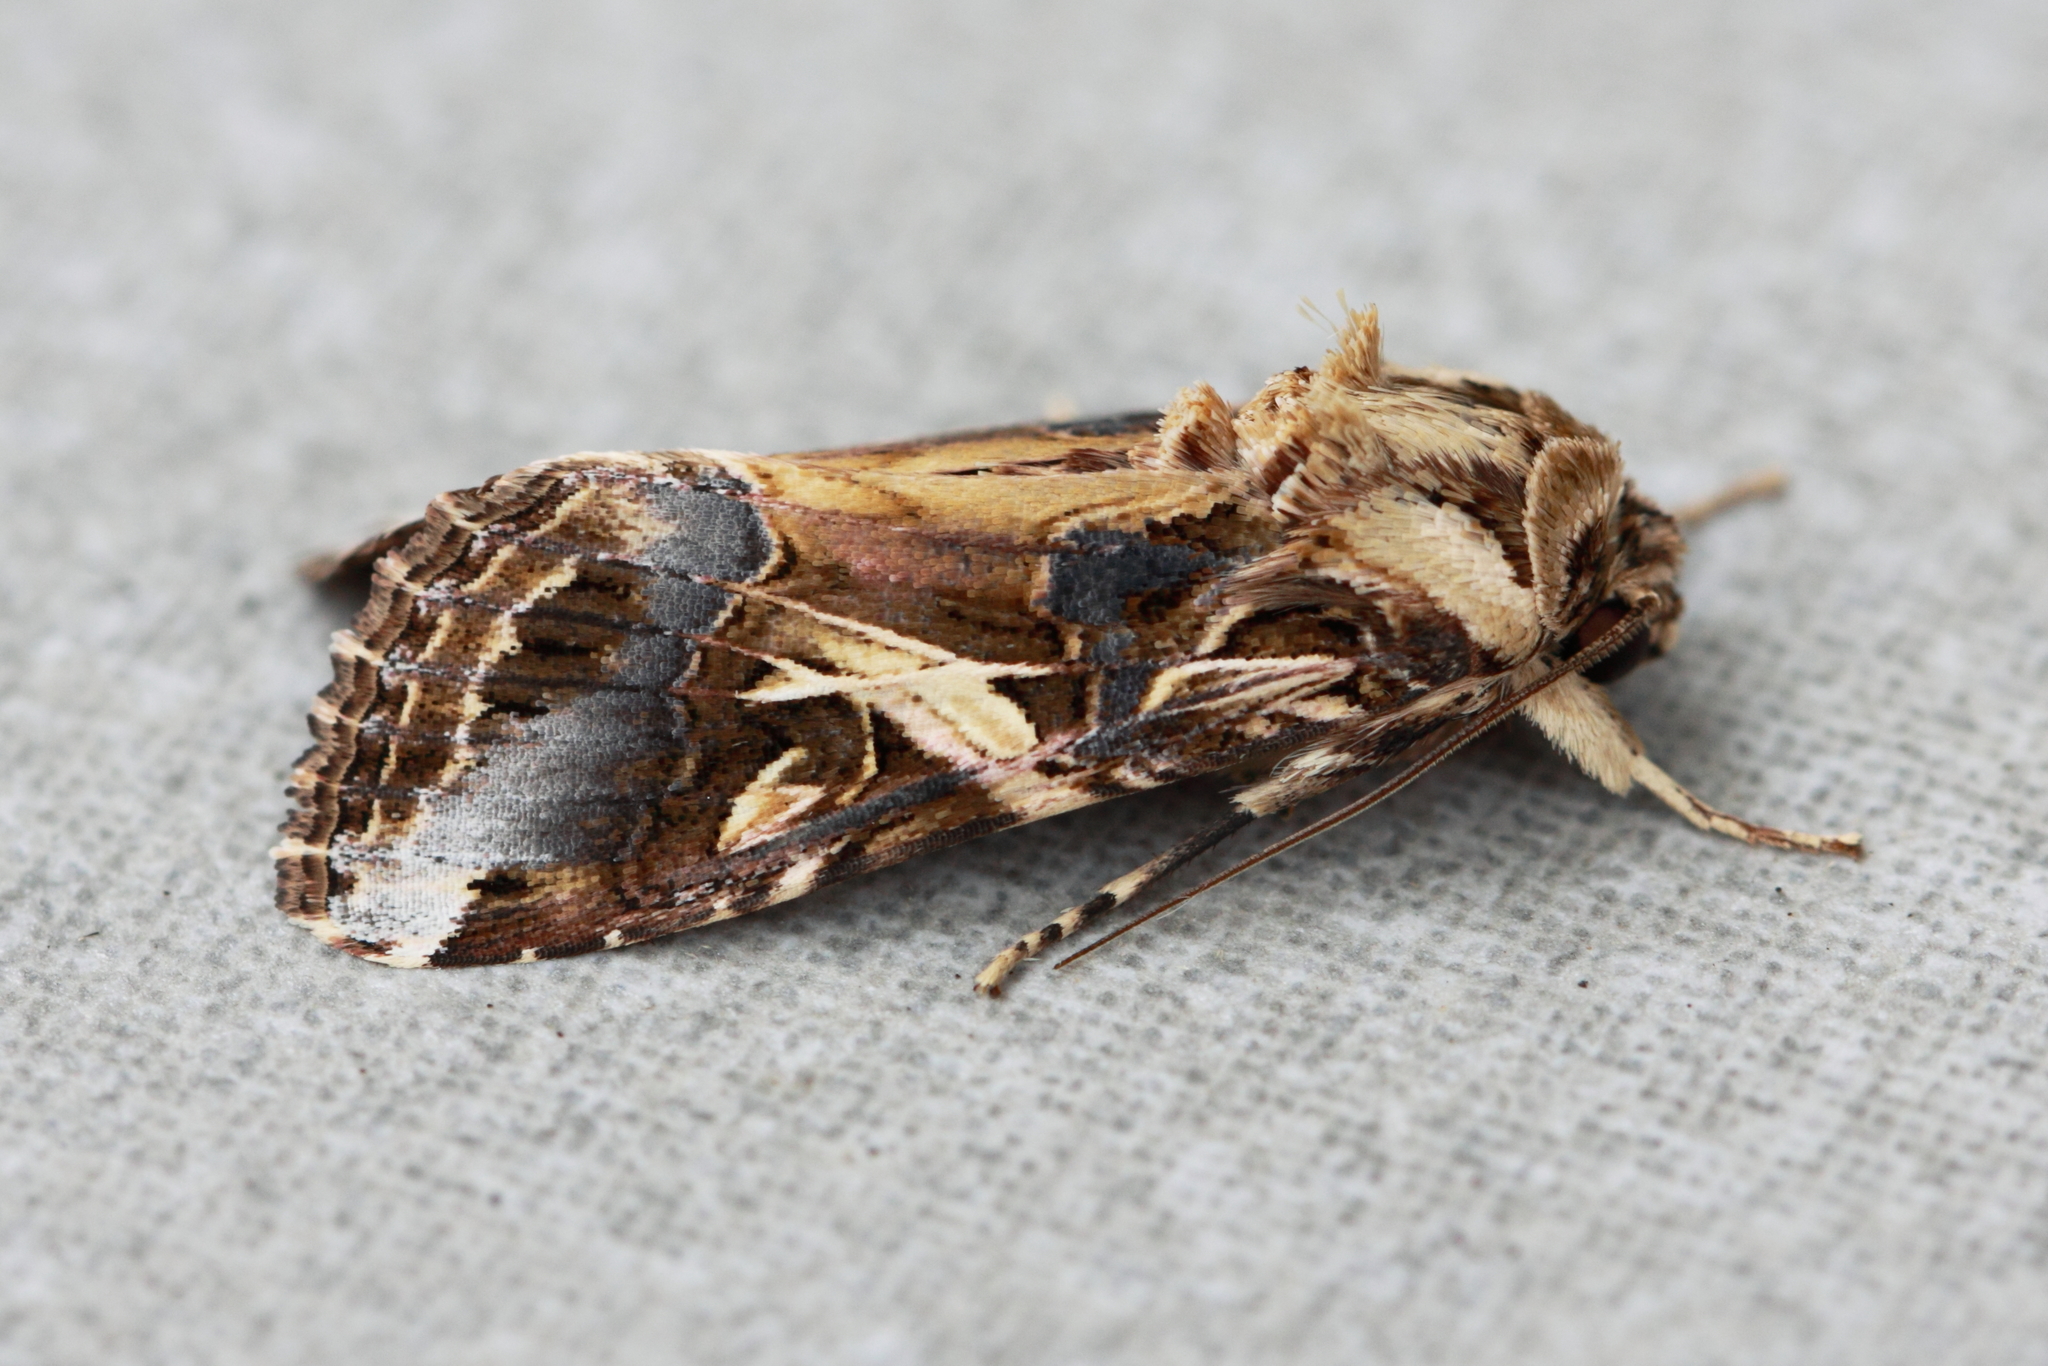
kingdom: Animalia
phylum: Arthropoda
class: Insecta
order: Lepidoptera
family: Noctuidae
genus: Spodoptera
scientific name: Spodoptera litura
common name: Asian cotton leafworm
